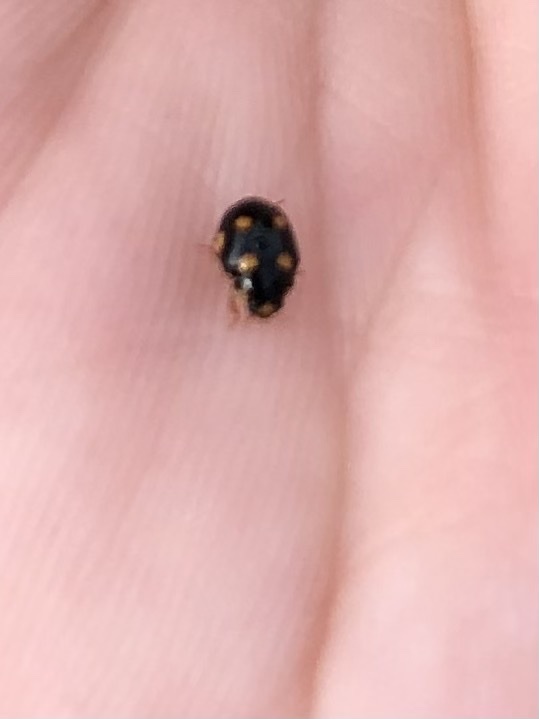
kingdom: Animalia
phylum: Arthropoda
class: Insecta
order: Coleoptera
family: Coccinellidae
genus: Brachiacantha
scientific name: Brachiacantha decempustulata
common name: Ten-spotted spurleg lady beetle
